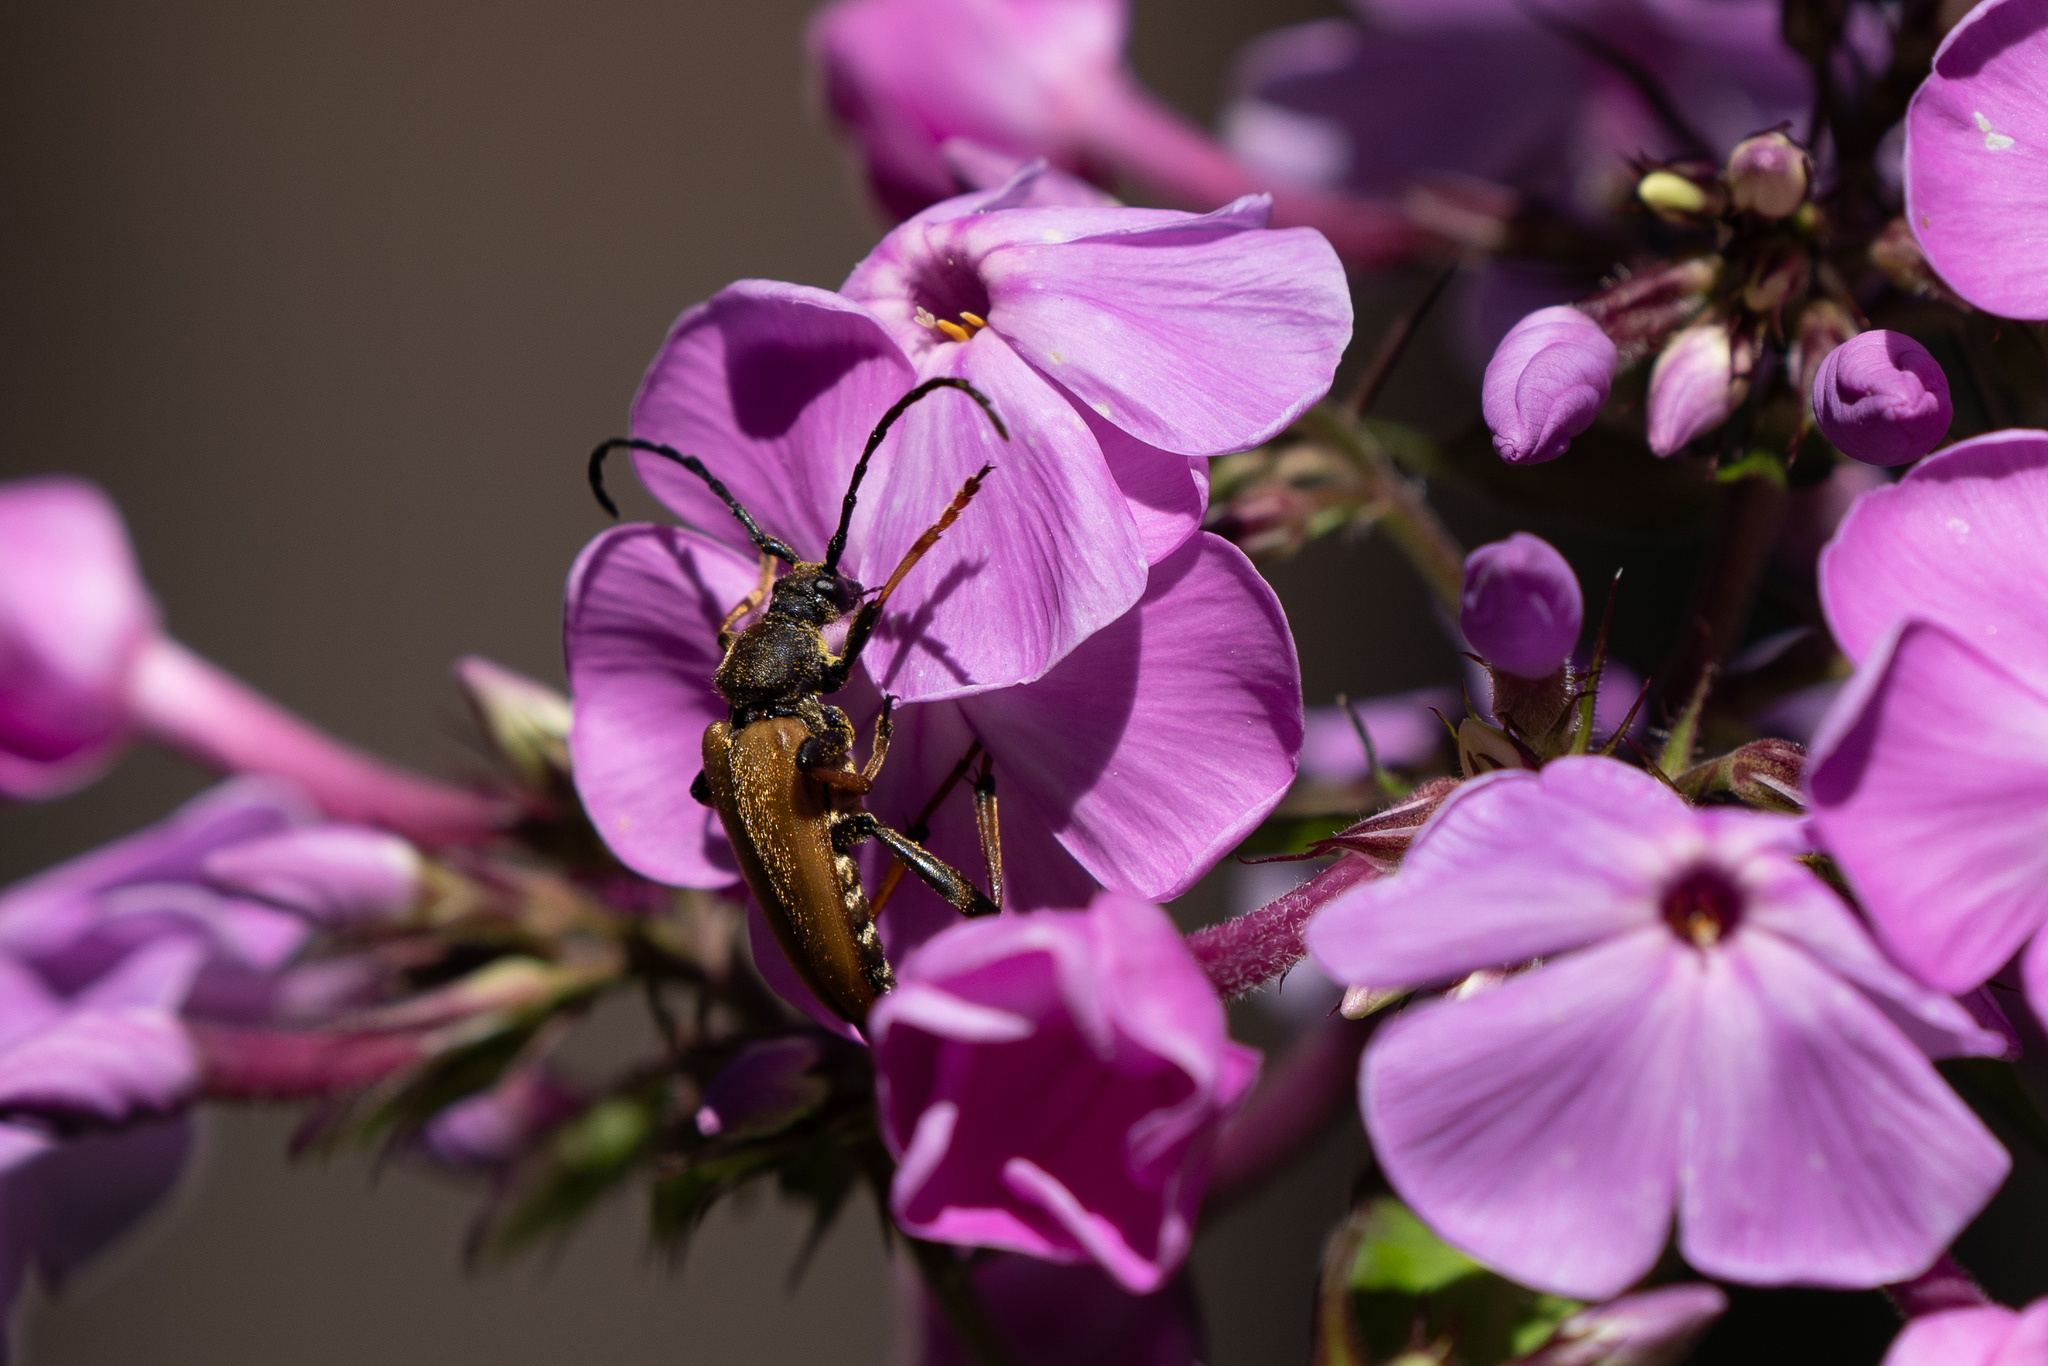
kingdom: Animalia
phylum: Arthropoda
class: Insecta
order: Coleoptera
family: Cerambycidae
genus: Stictoleptura
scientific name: Stictoleptura rubra
